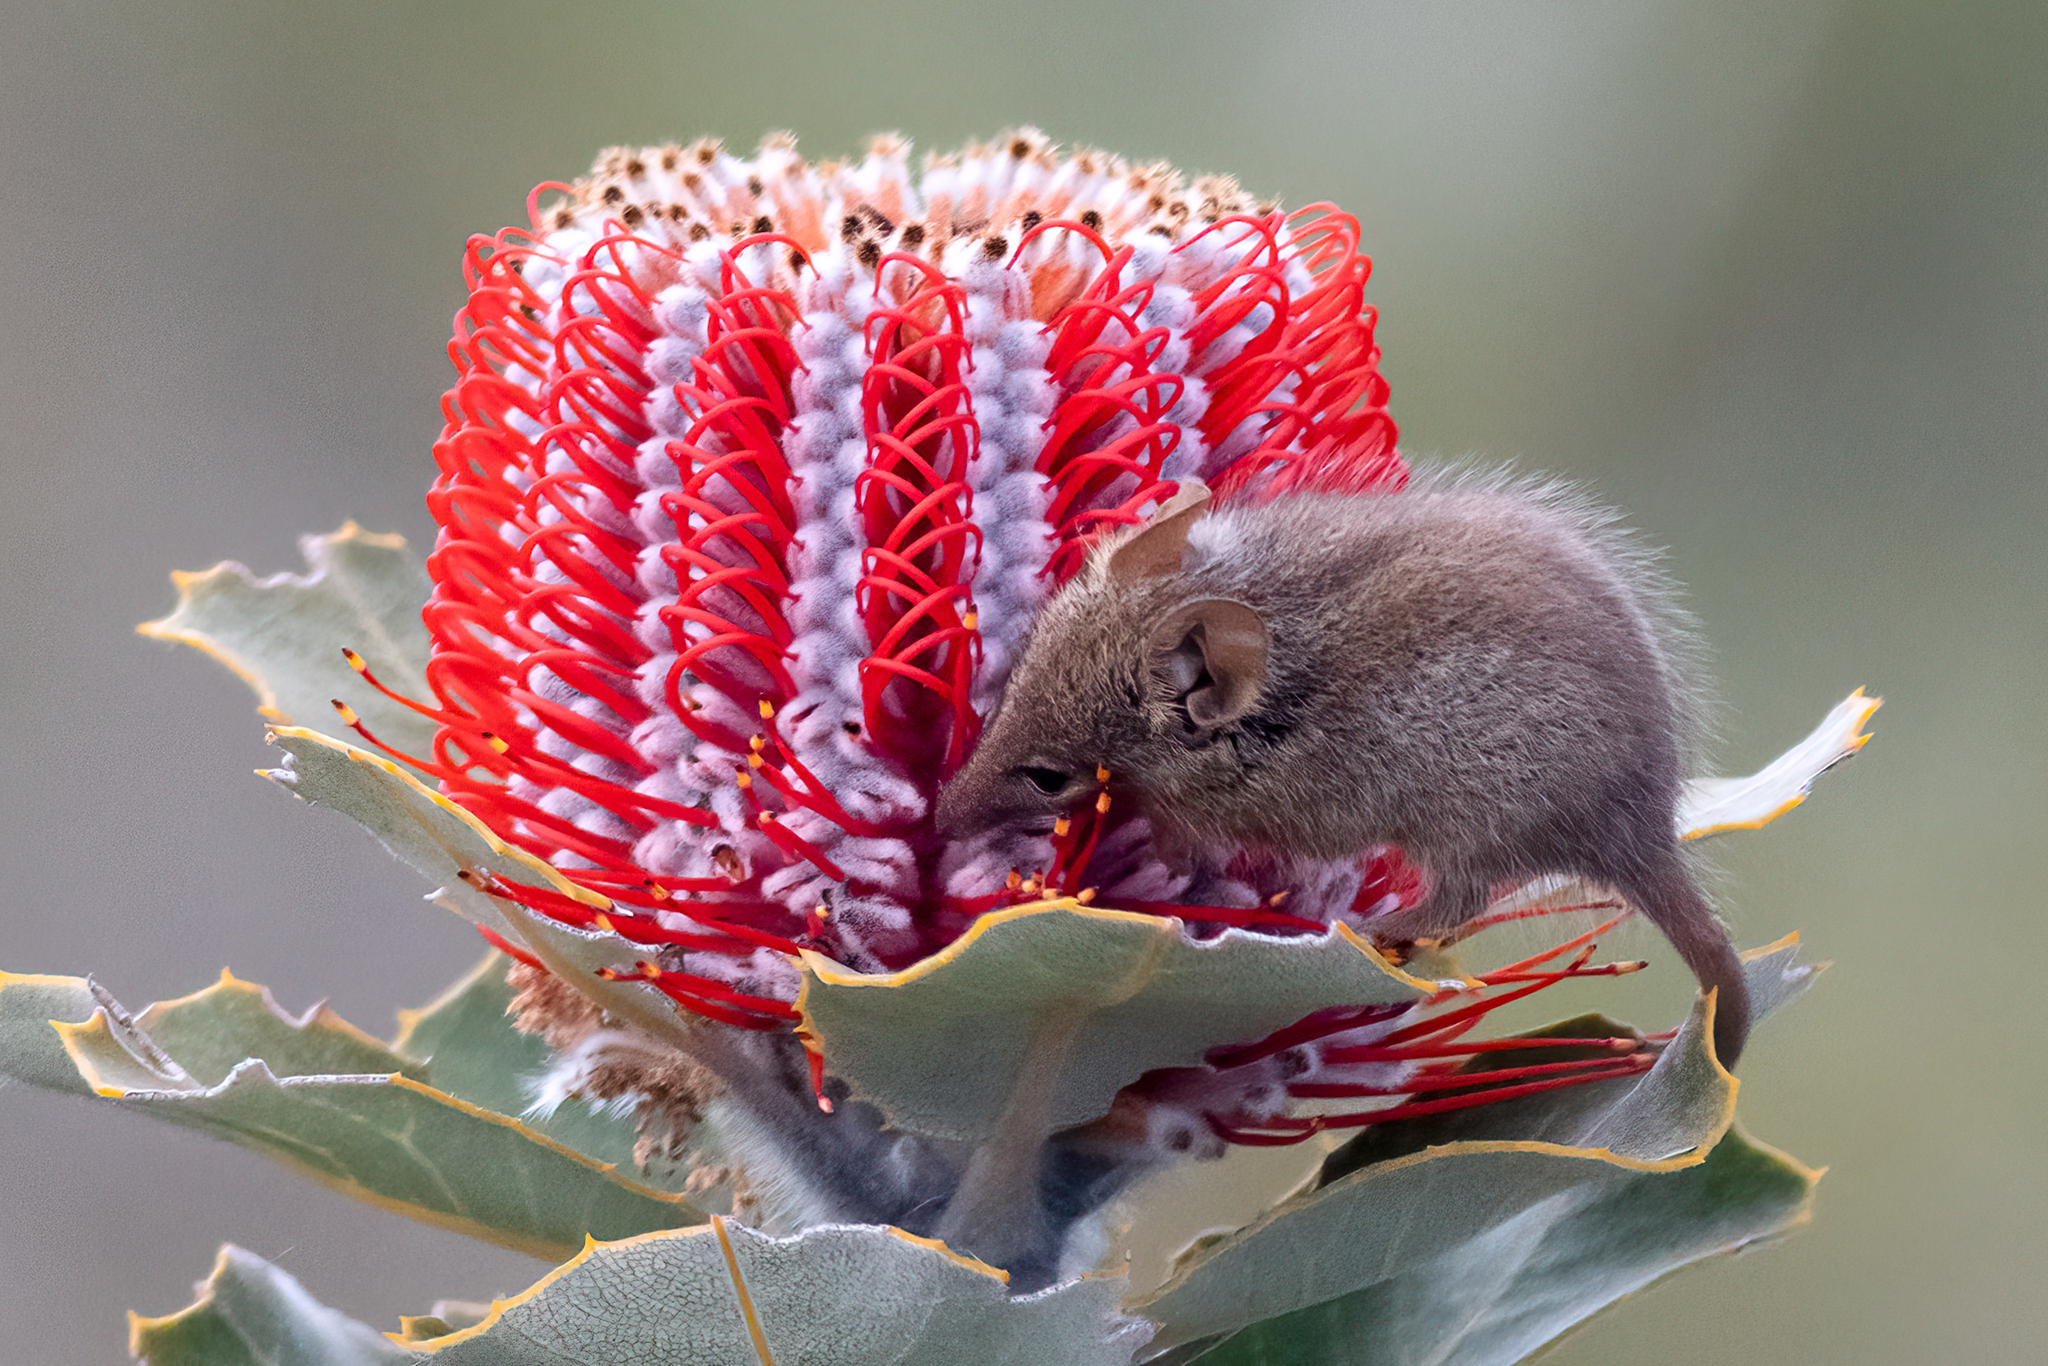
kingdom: Animalia
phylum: Chordata
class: Mammalia
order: Diprotodontia
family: Tarsipedidae
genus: Tarsipes
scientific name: Tarsipes rostratus
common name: Honey possum
